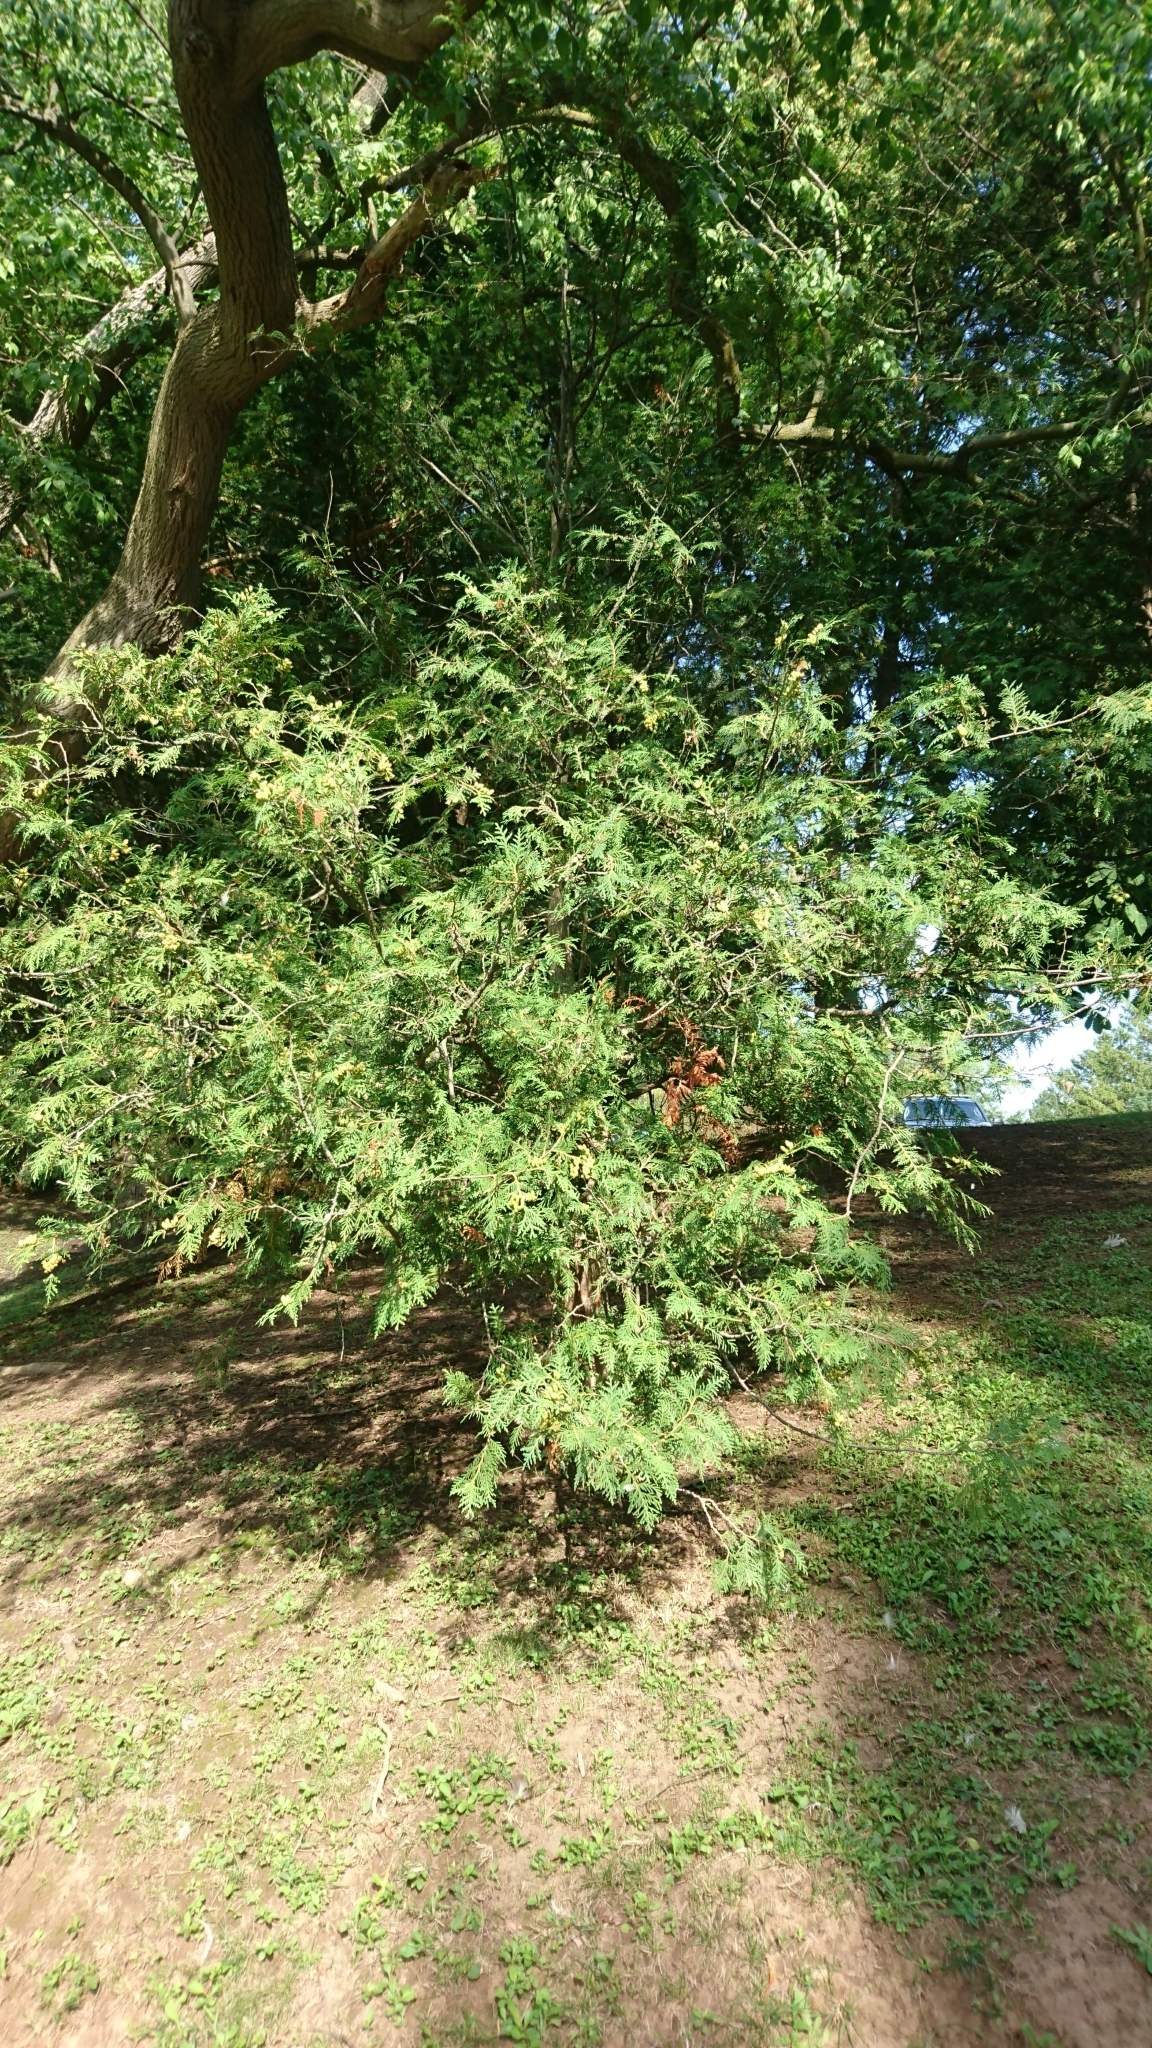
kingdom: Plantae
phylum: Tracheophyta
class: Pinopsida
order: Pinales
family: Cupressaceae
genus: Thuja
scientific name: Thuja occidentalis
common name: Northern white-cedar
